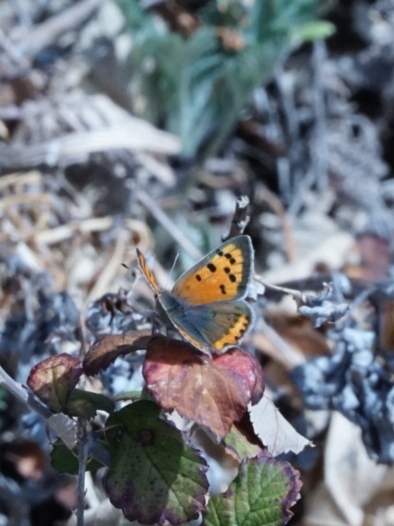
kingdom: Animalia
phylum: Arthropoda
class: Insecta
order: Lepidoptera
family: Lycaenidae
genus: Lycaena
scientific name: Lycaena phlaeas
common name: Small copper
